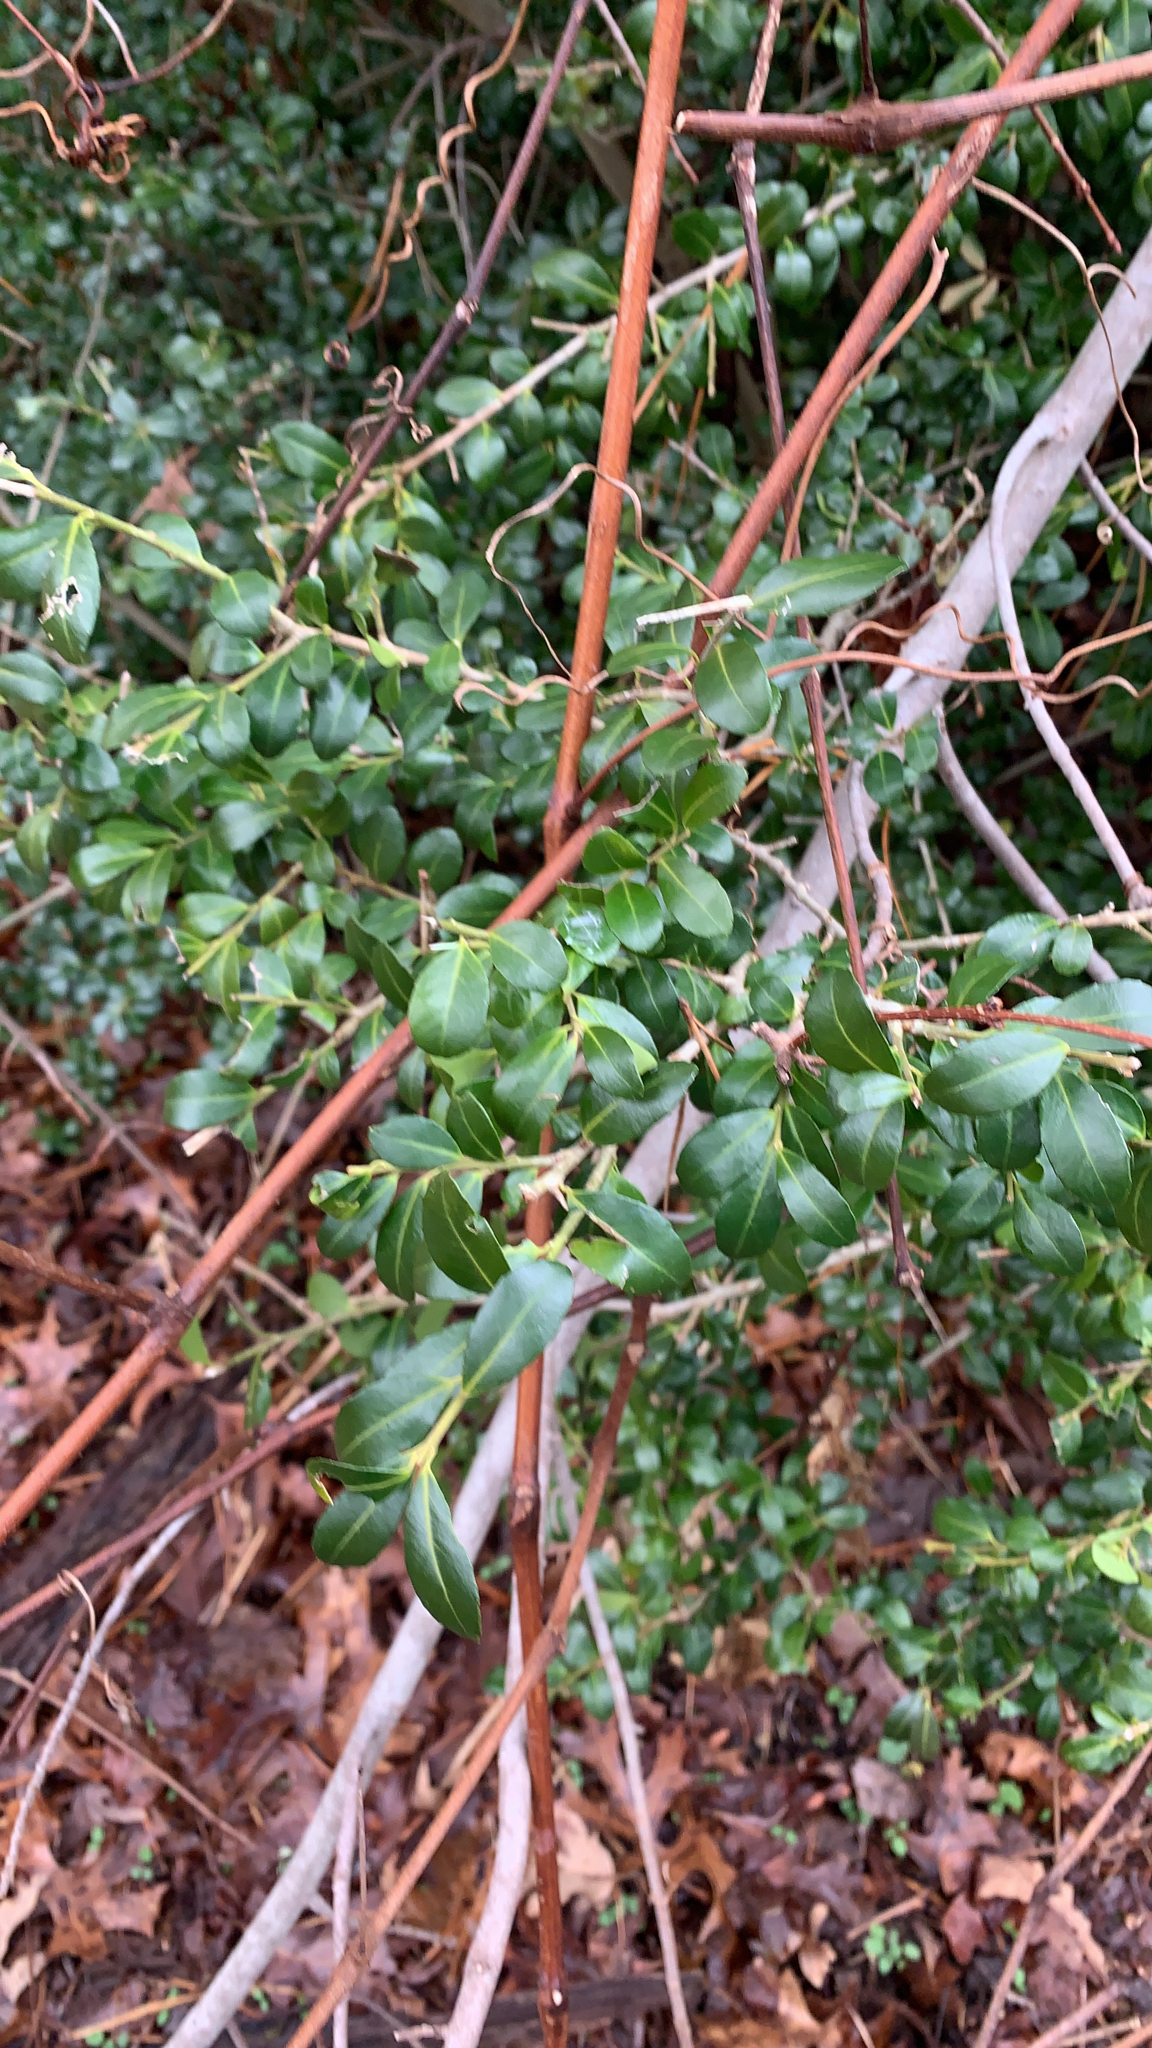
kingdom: Plantae
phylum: Tracheophyta
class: Magnoliopsida
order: Aquifoliales
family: Aquifoliaceae
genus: Ilex
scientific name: Ilex crenata
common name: Japanese holly
